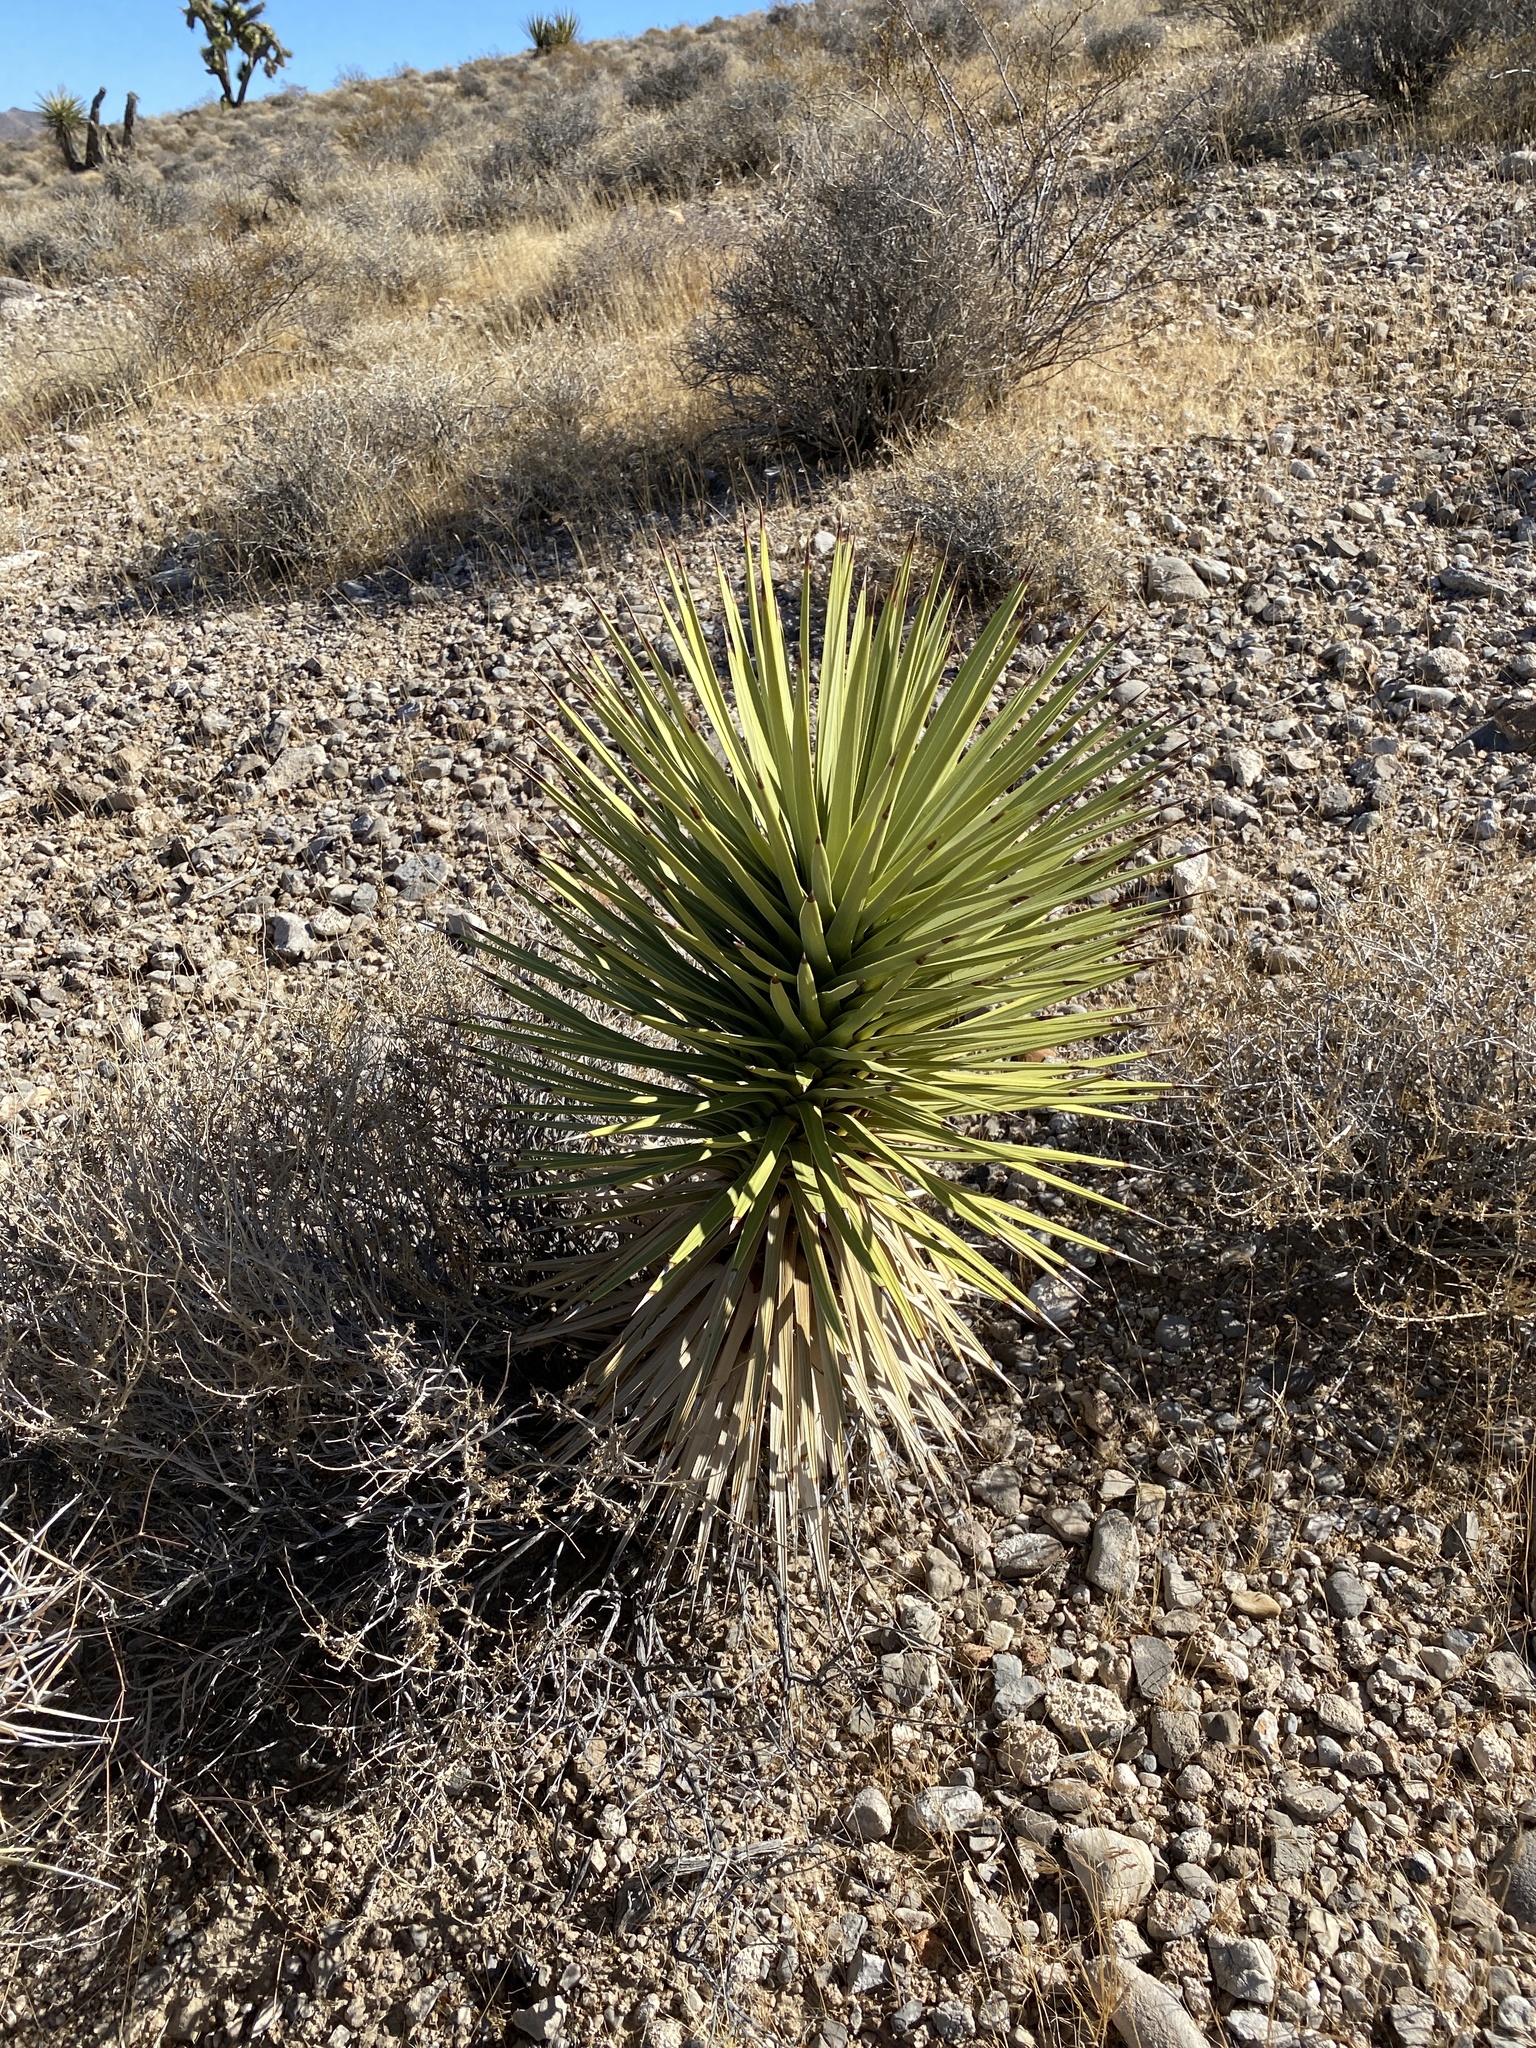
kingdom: Plantae
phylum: Tracheophyta
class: Liliopsida
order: Asparagales
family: Asparagaceae
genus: Yucca
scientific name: Yucca brevifolia
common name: Joshua tree
